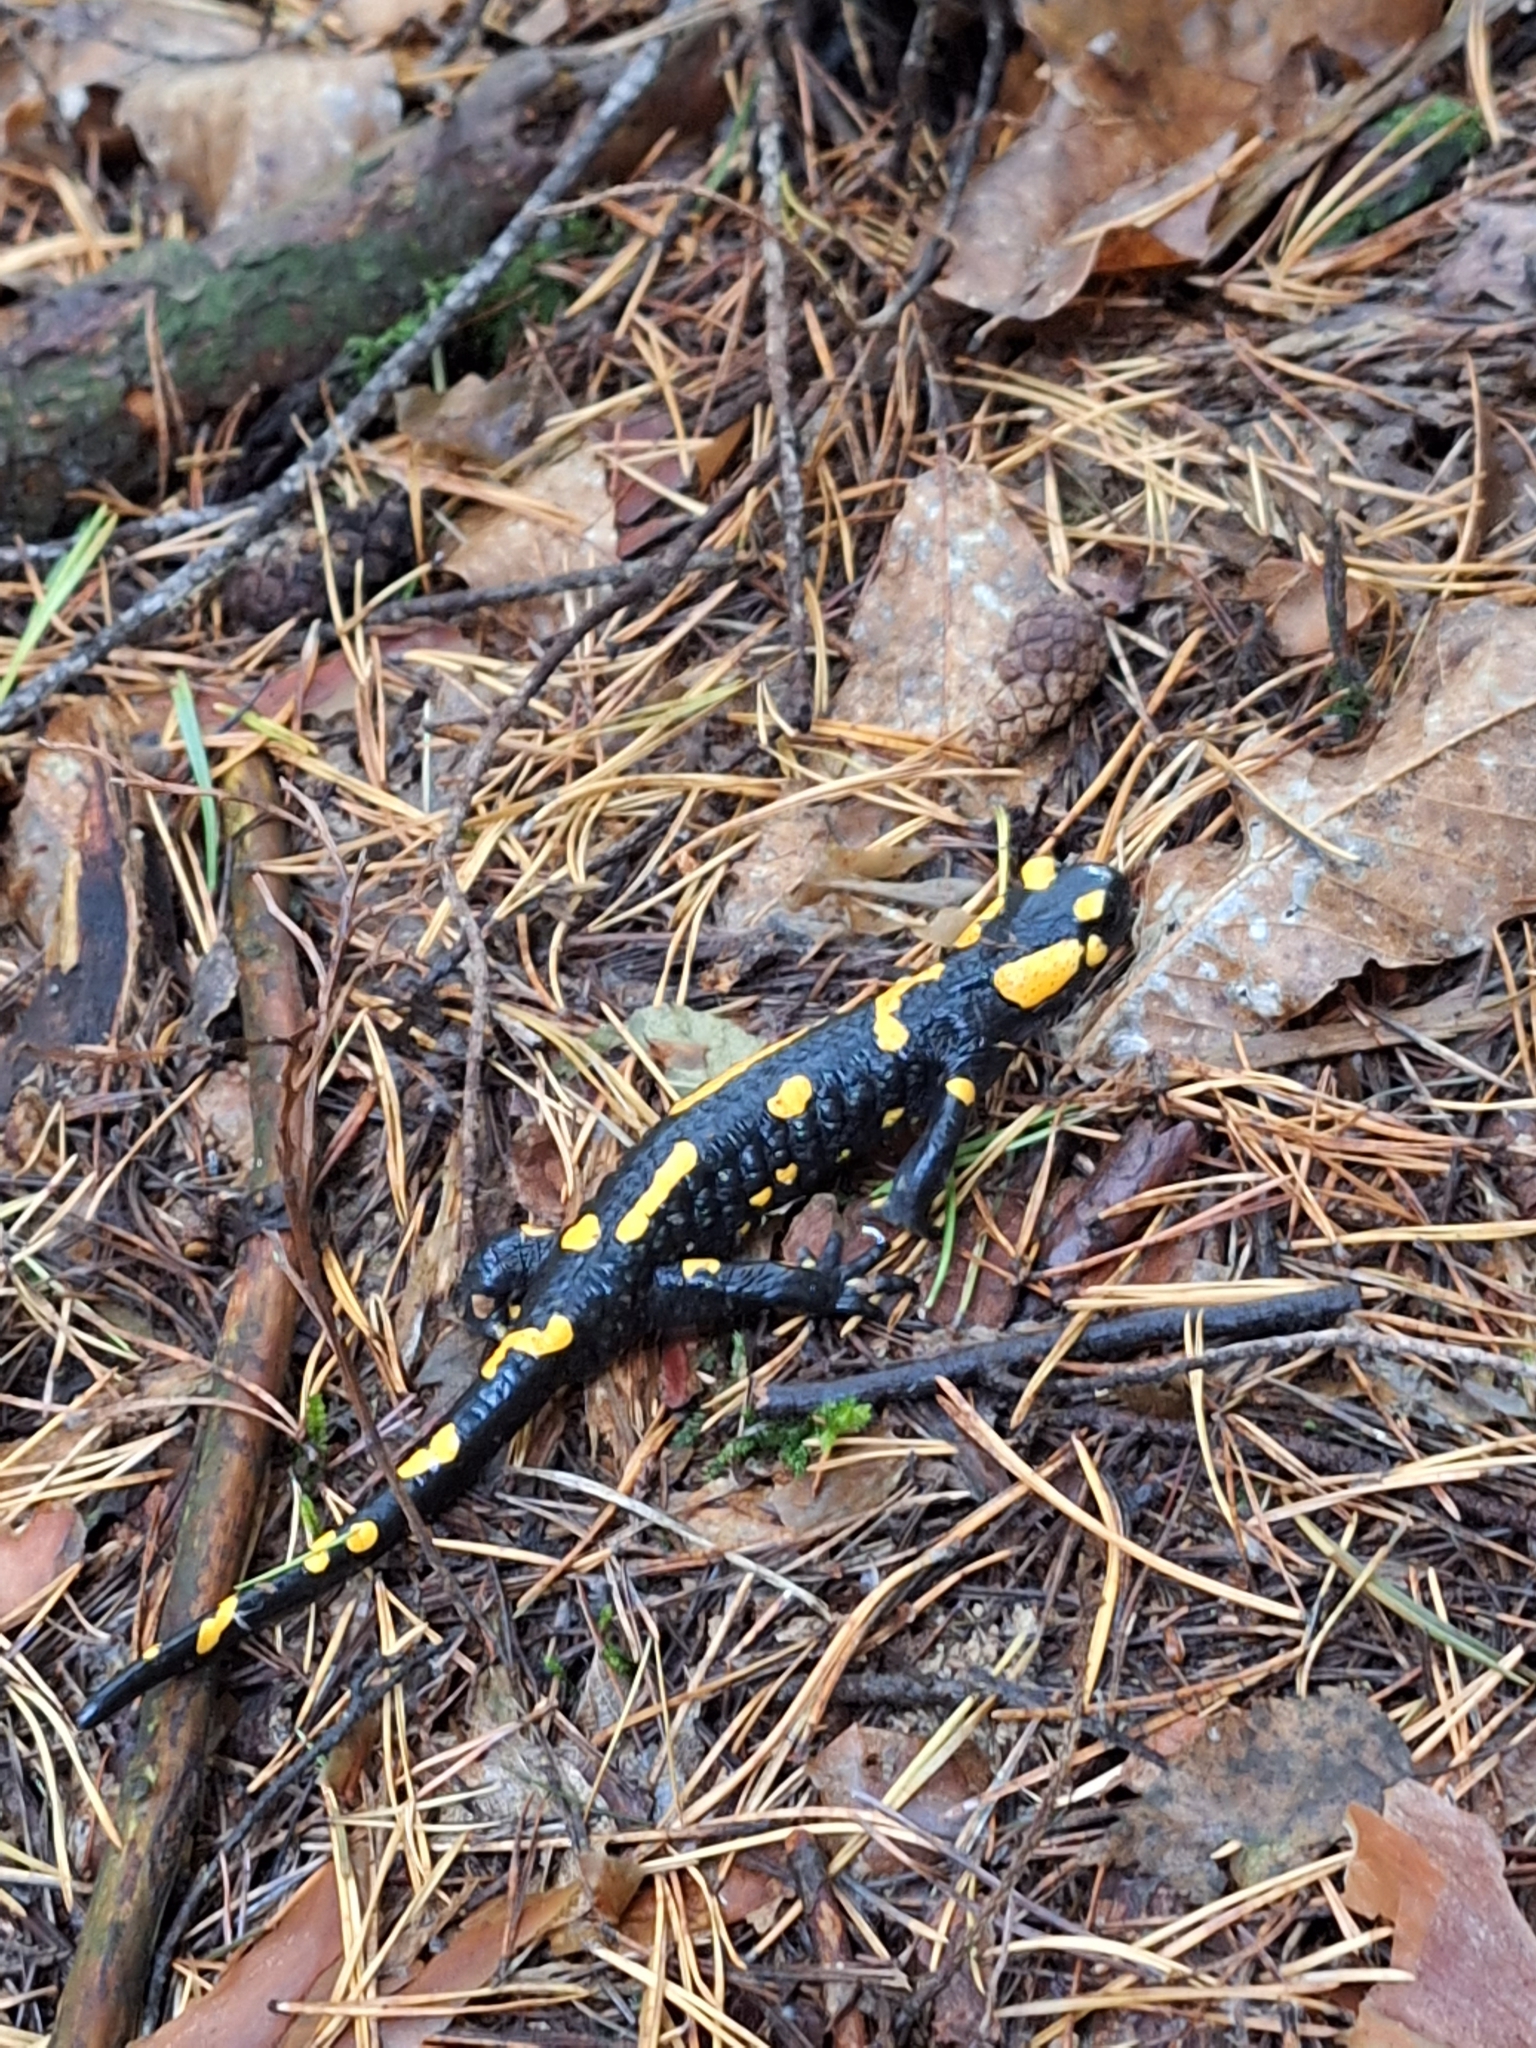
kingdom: Animalia
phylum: Chordata
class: Amphibia
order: Caudata
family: Salamandridae
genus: Salamandra
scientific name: Salamandra salamandra
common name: Fire salamander
